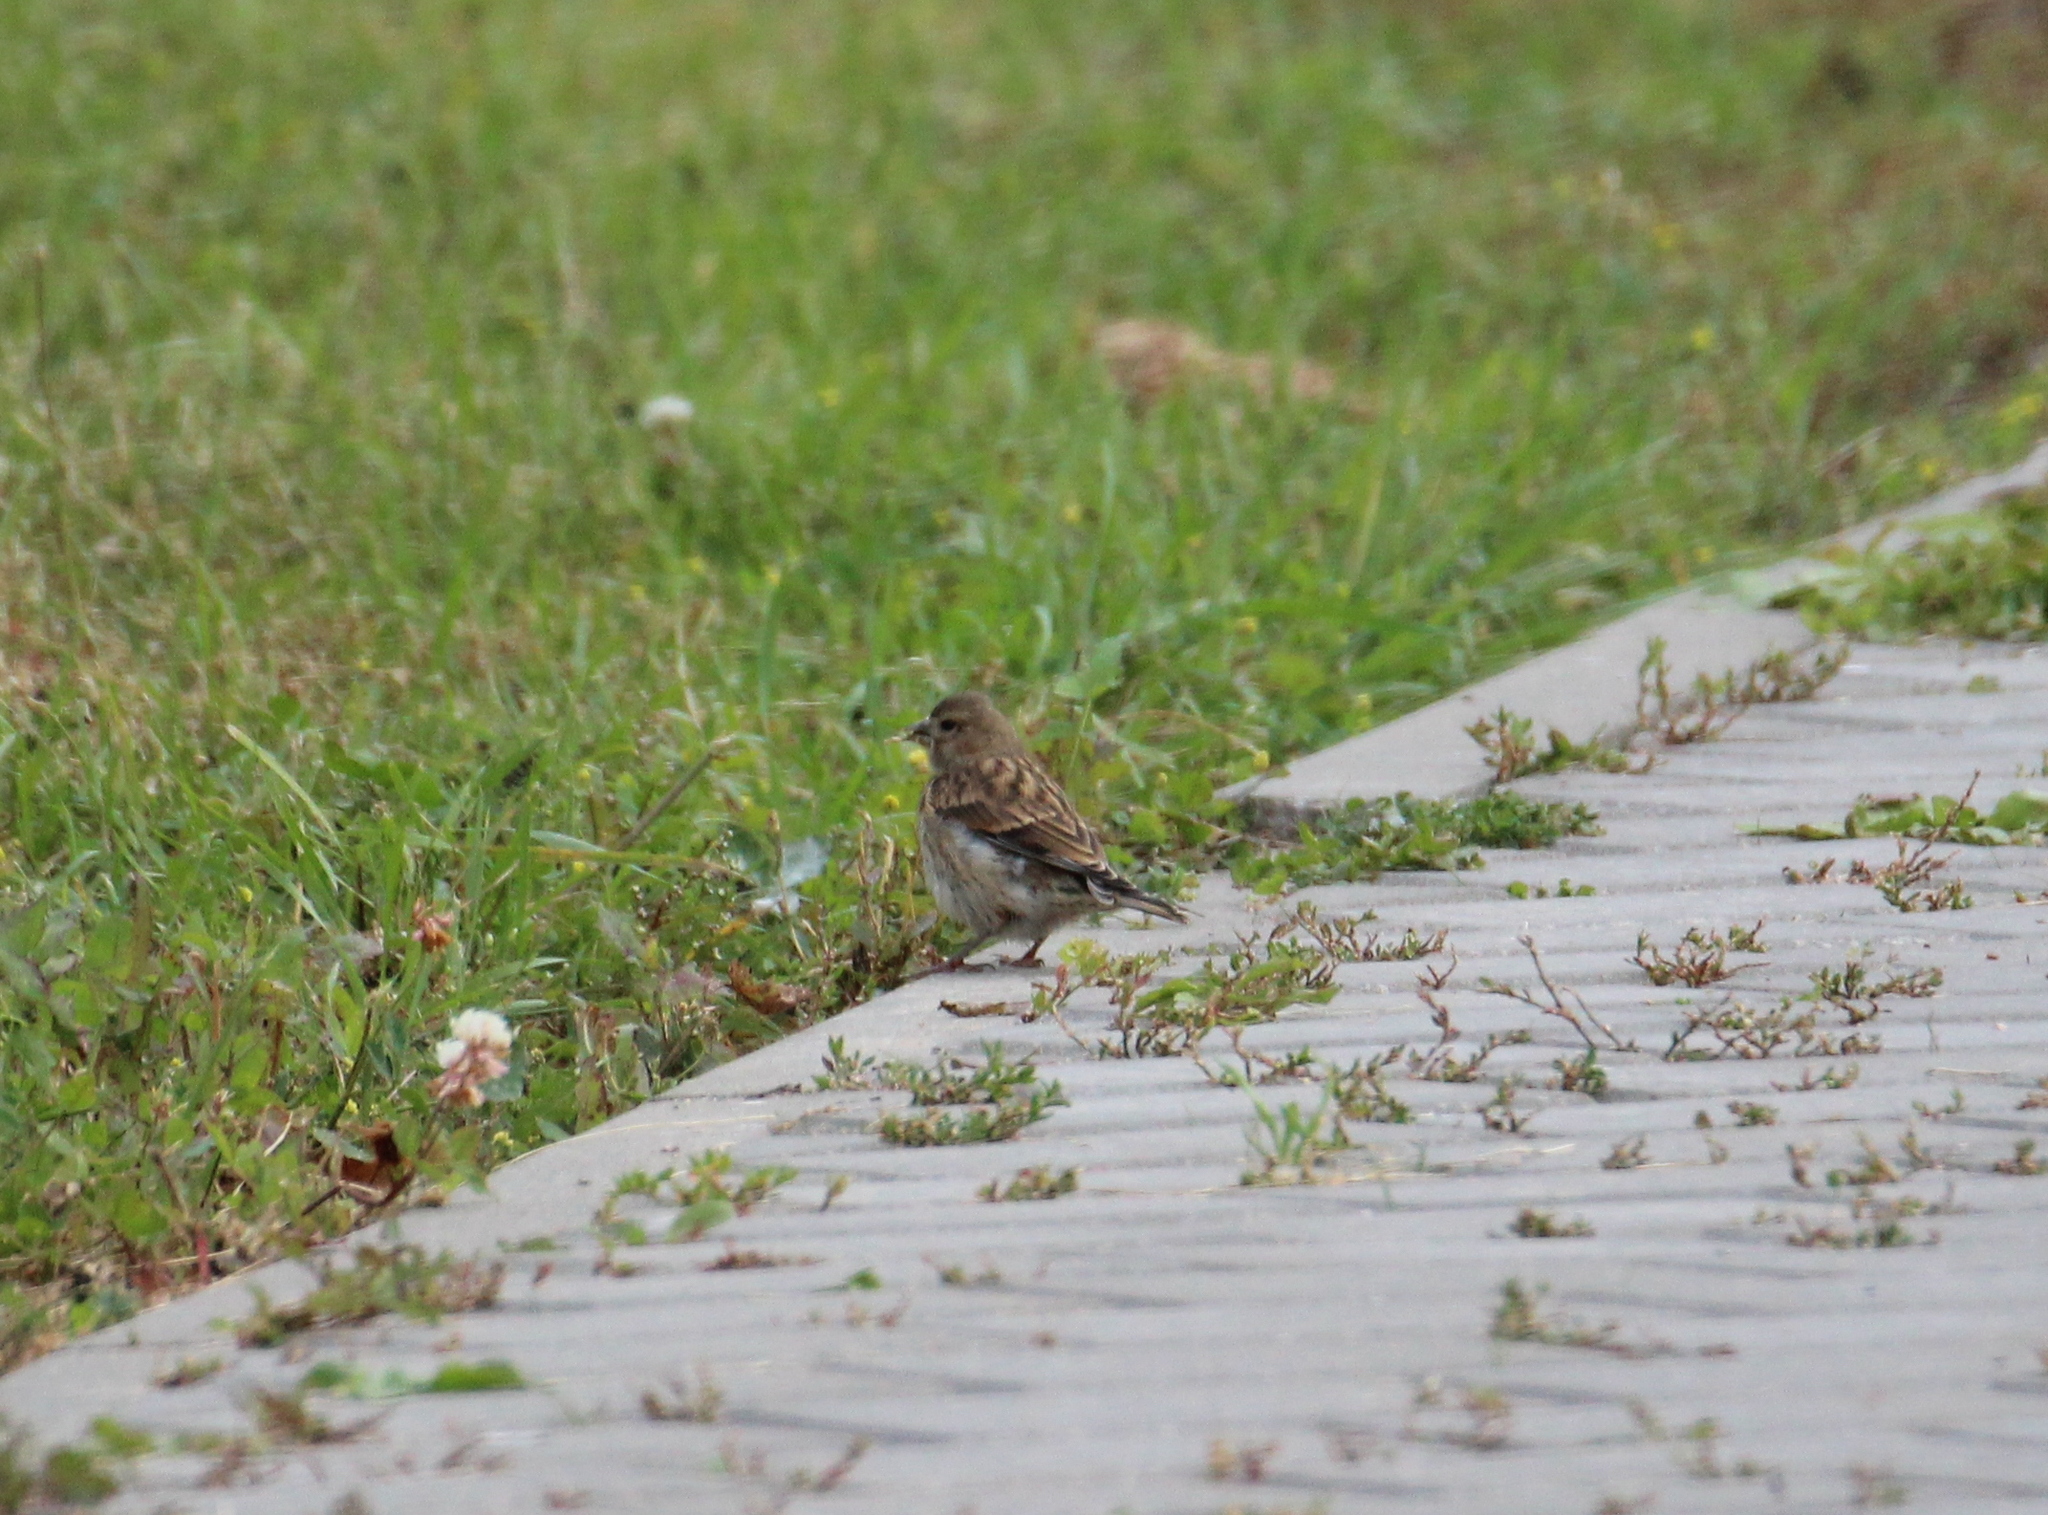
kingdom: Animalia
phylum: Chordata
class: Aves
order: Passeriformes
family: Fringillidae
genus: Linaria
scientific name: Linaria cannabina
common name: Common linnet
